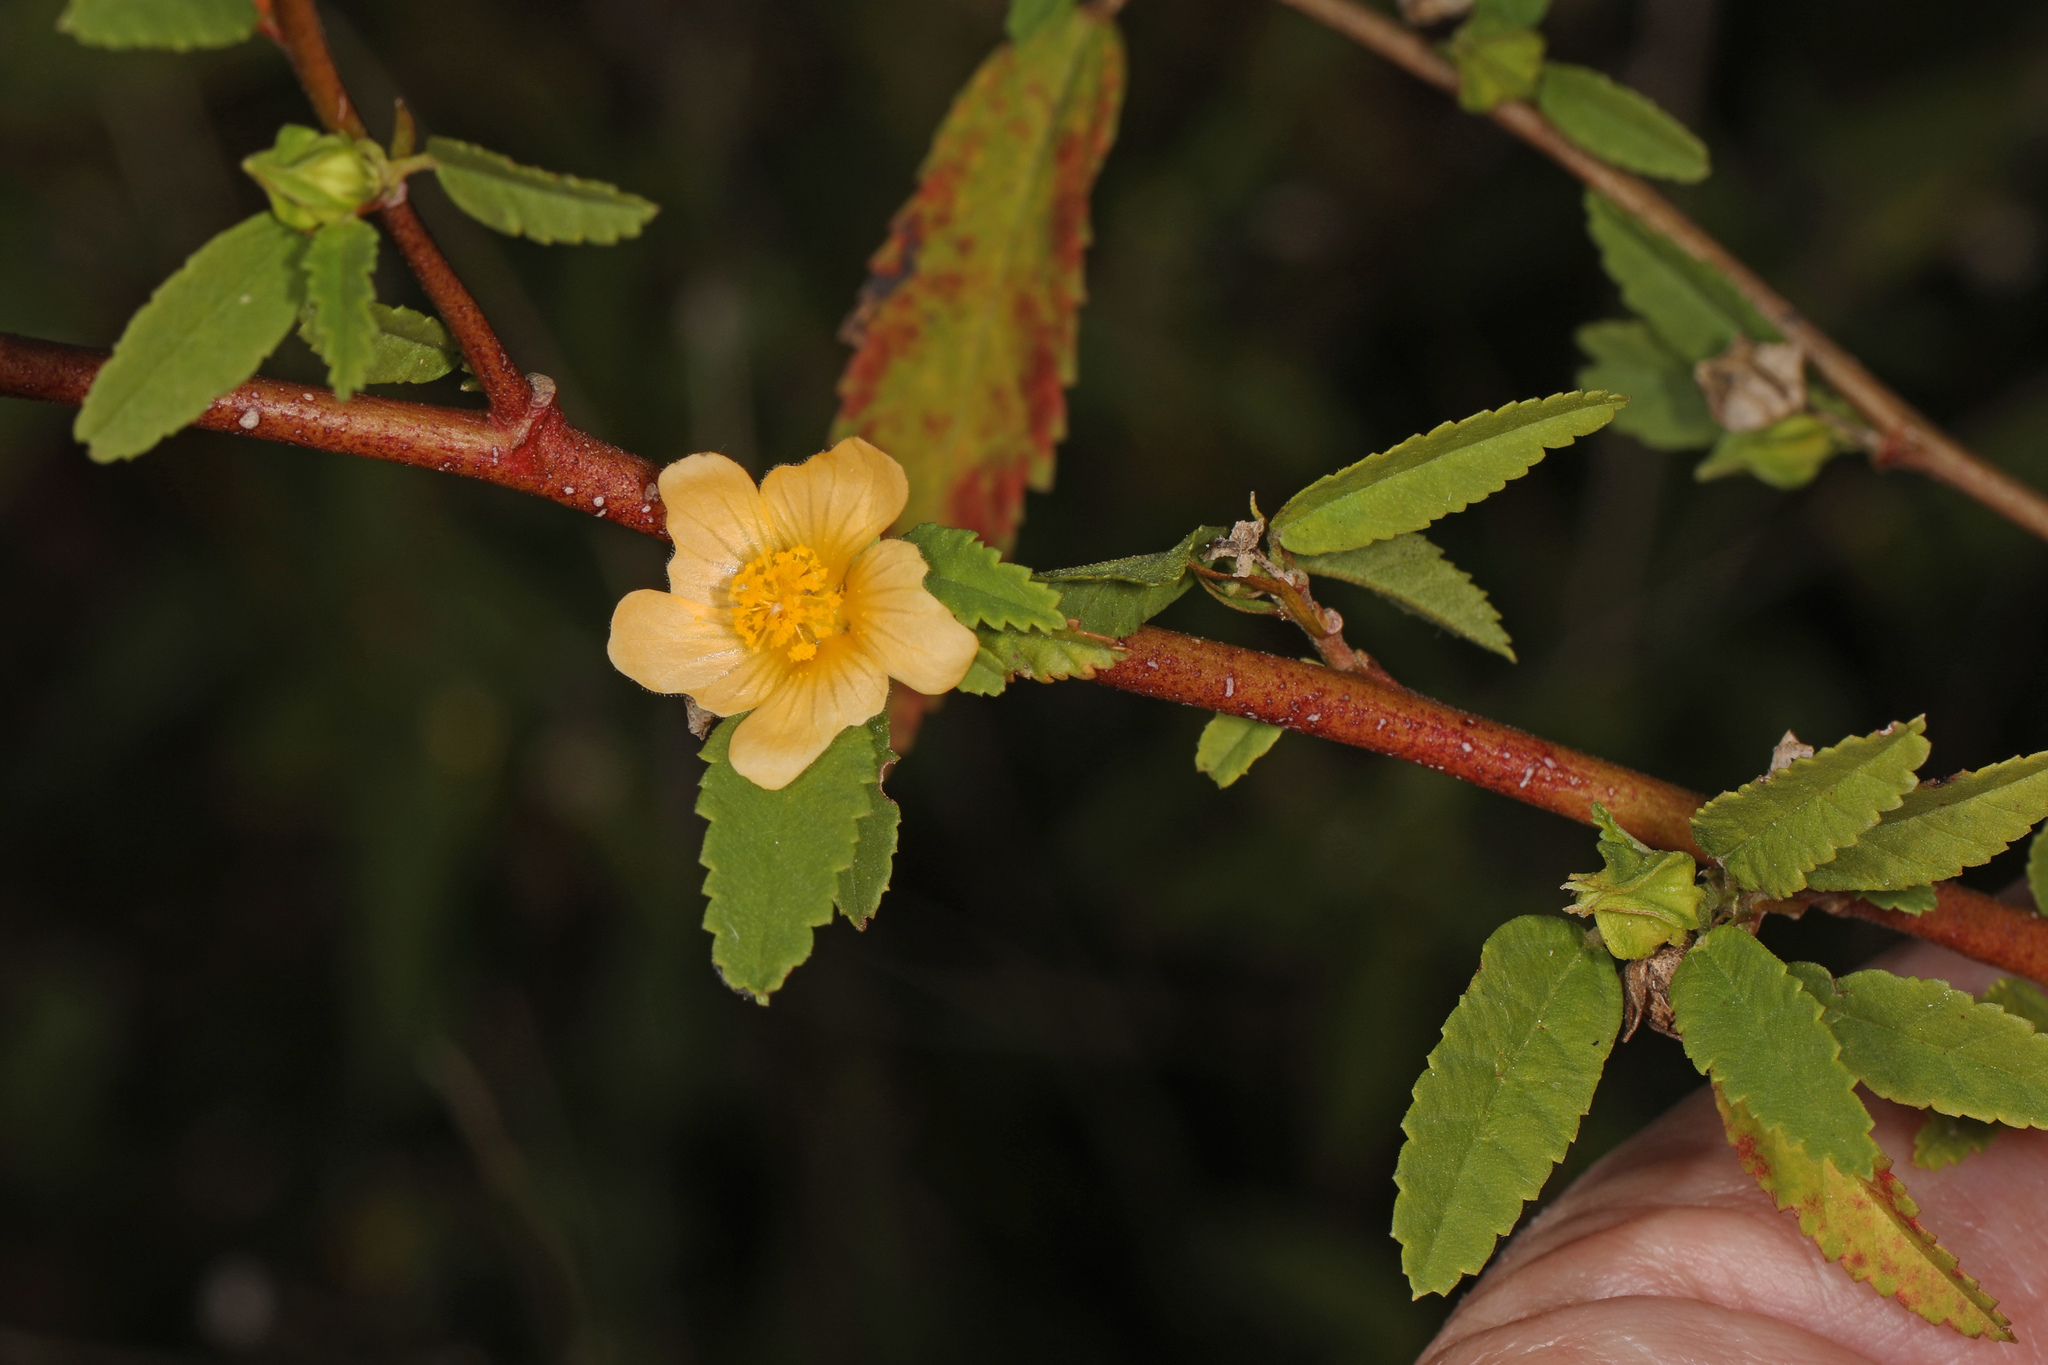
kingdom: Plantae
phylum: Tracheophyta
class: Magnoliopsida
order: Malvales
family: Malvaceae
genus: Sida
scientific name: Sida ulmifolia
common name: Broom weed
